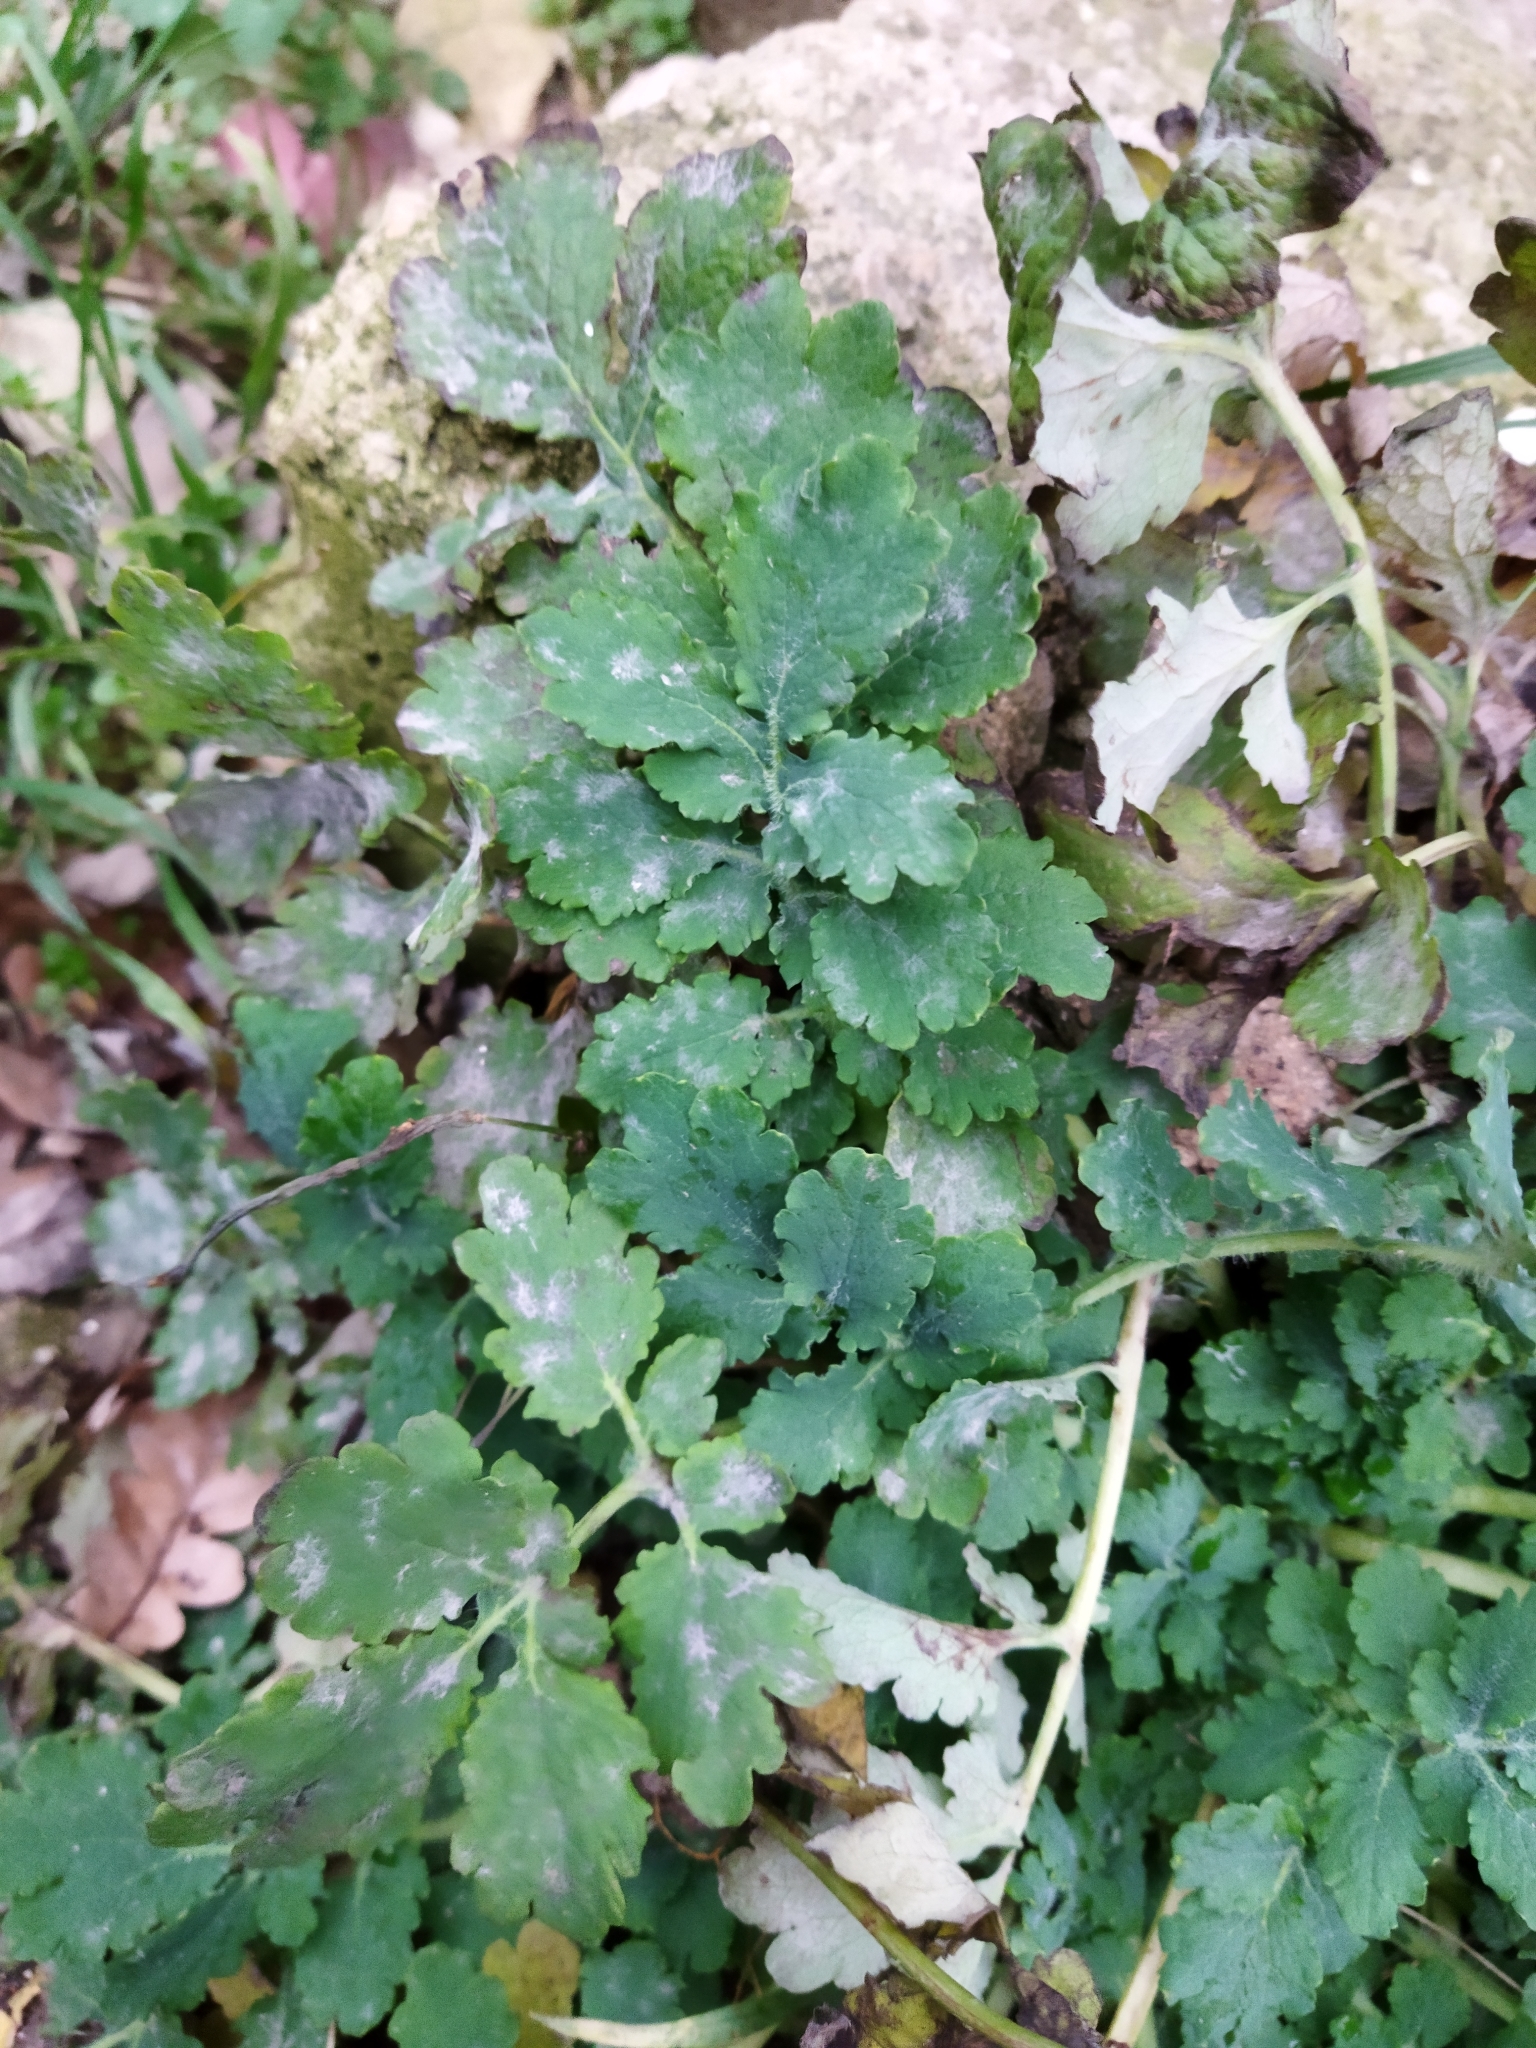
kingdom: Plantae
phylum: Tracheophyta
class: Magnoliopsida
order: Ranunculales
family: Papaveraceae
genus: Chelidonium
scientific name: Chelidonium majus
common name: Greater celandine
